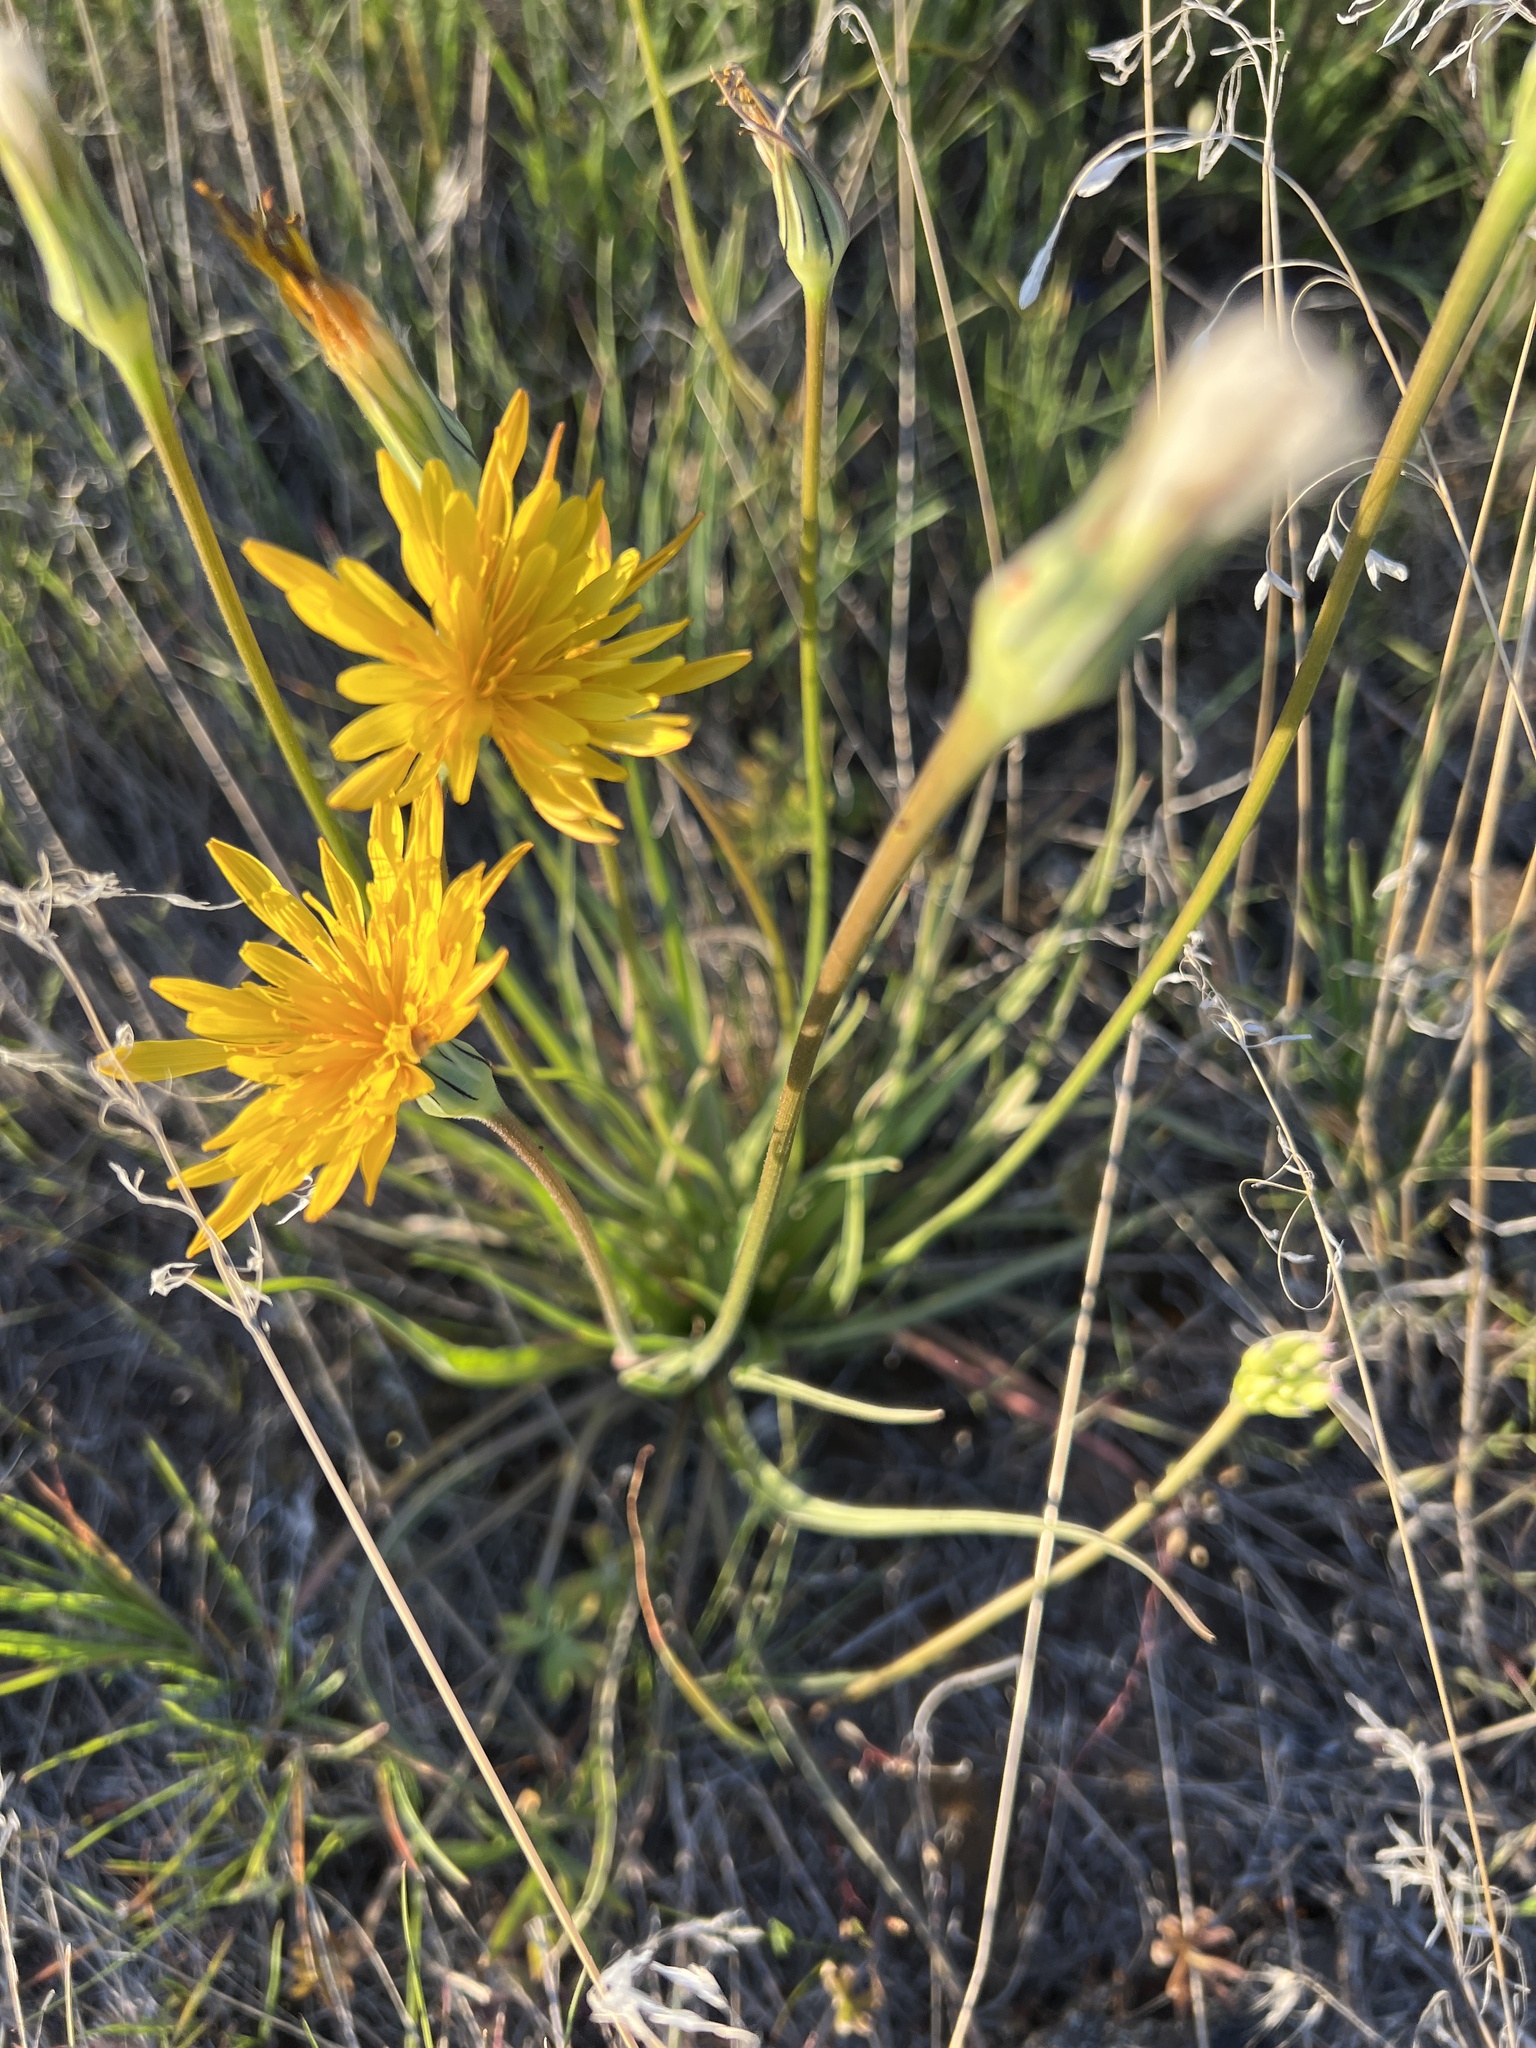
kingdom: Plantae
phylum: Tracheophyta
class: Magnoliopsida
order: Asterales
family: Asteraceae
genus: Microseris
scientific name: Microseris troximoides
